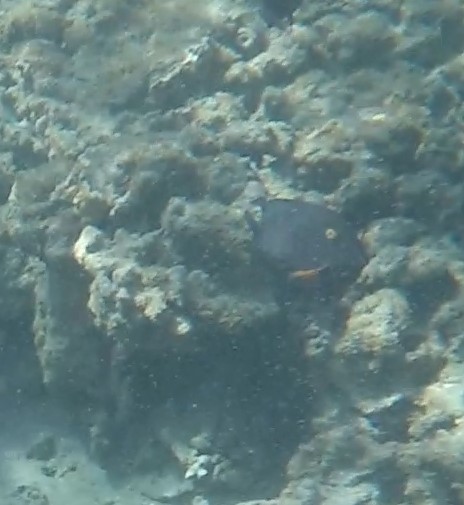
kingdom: Animalia
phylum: Chordata
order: Perciformes
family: Acanthuridae
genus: Ctenochaetus
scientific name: Ctenochaetus strigosus
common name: Bristletoothed surgeonfish
